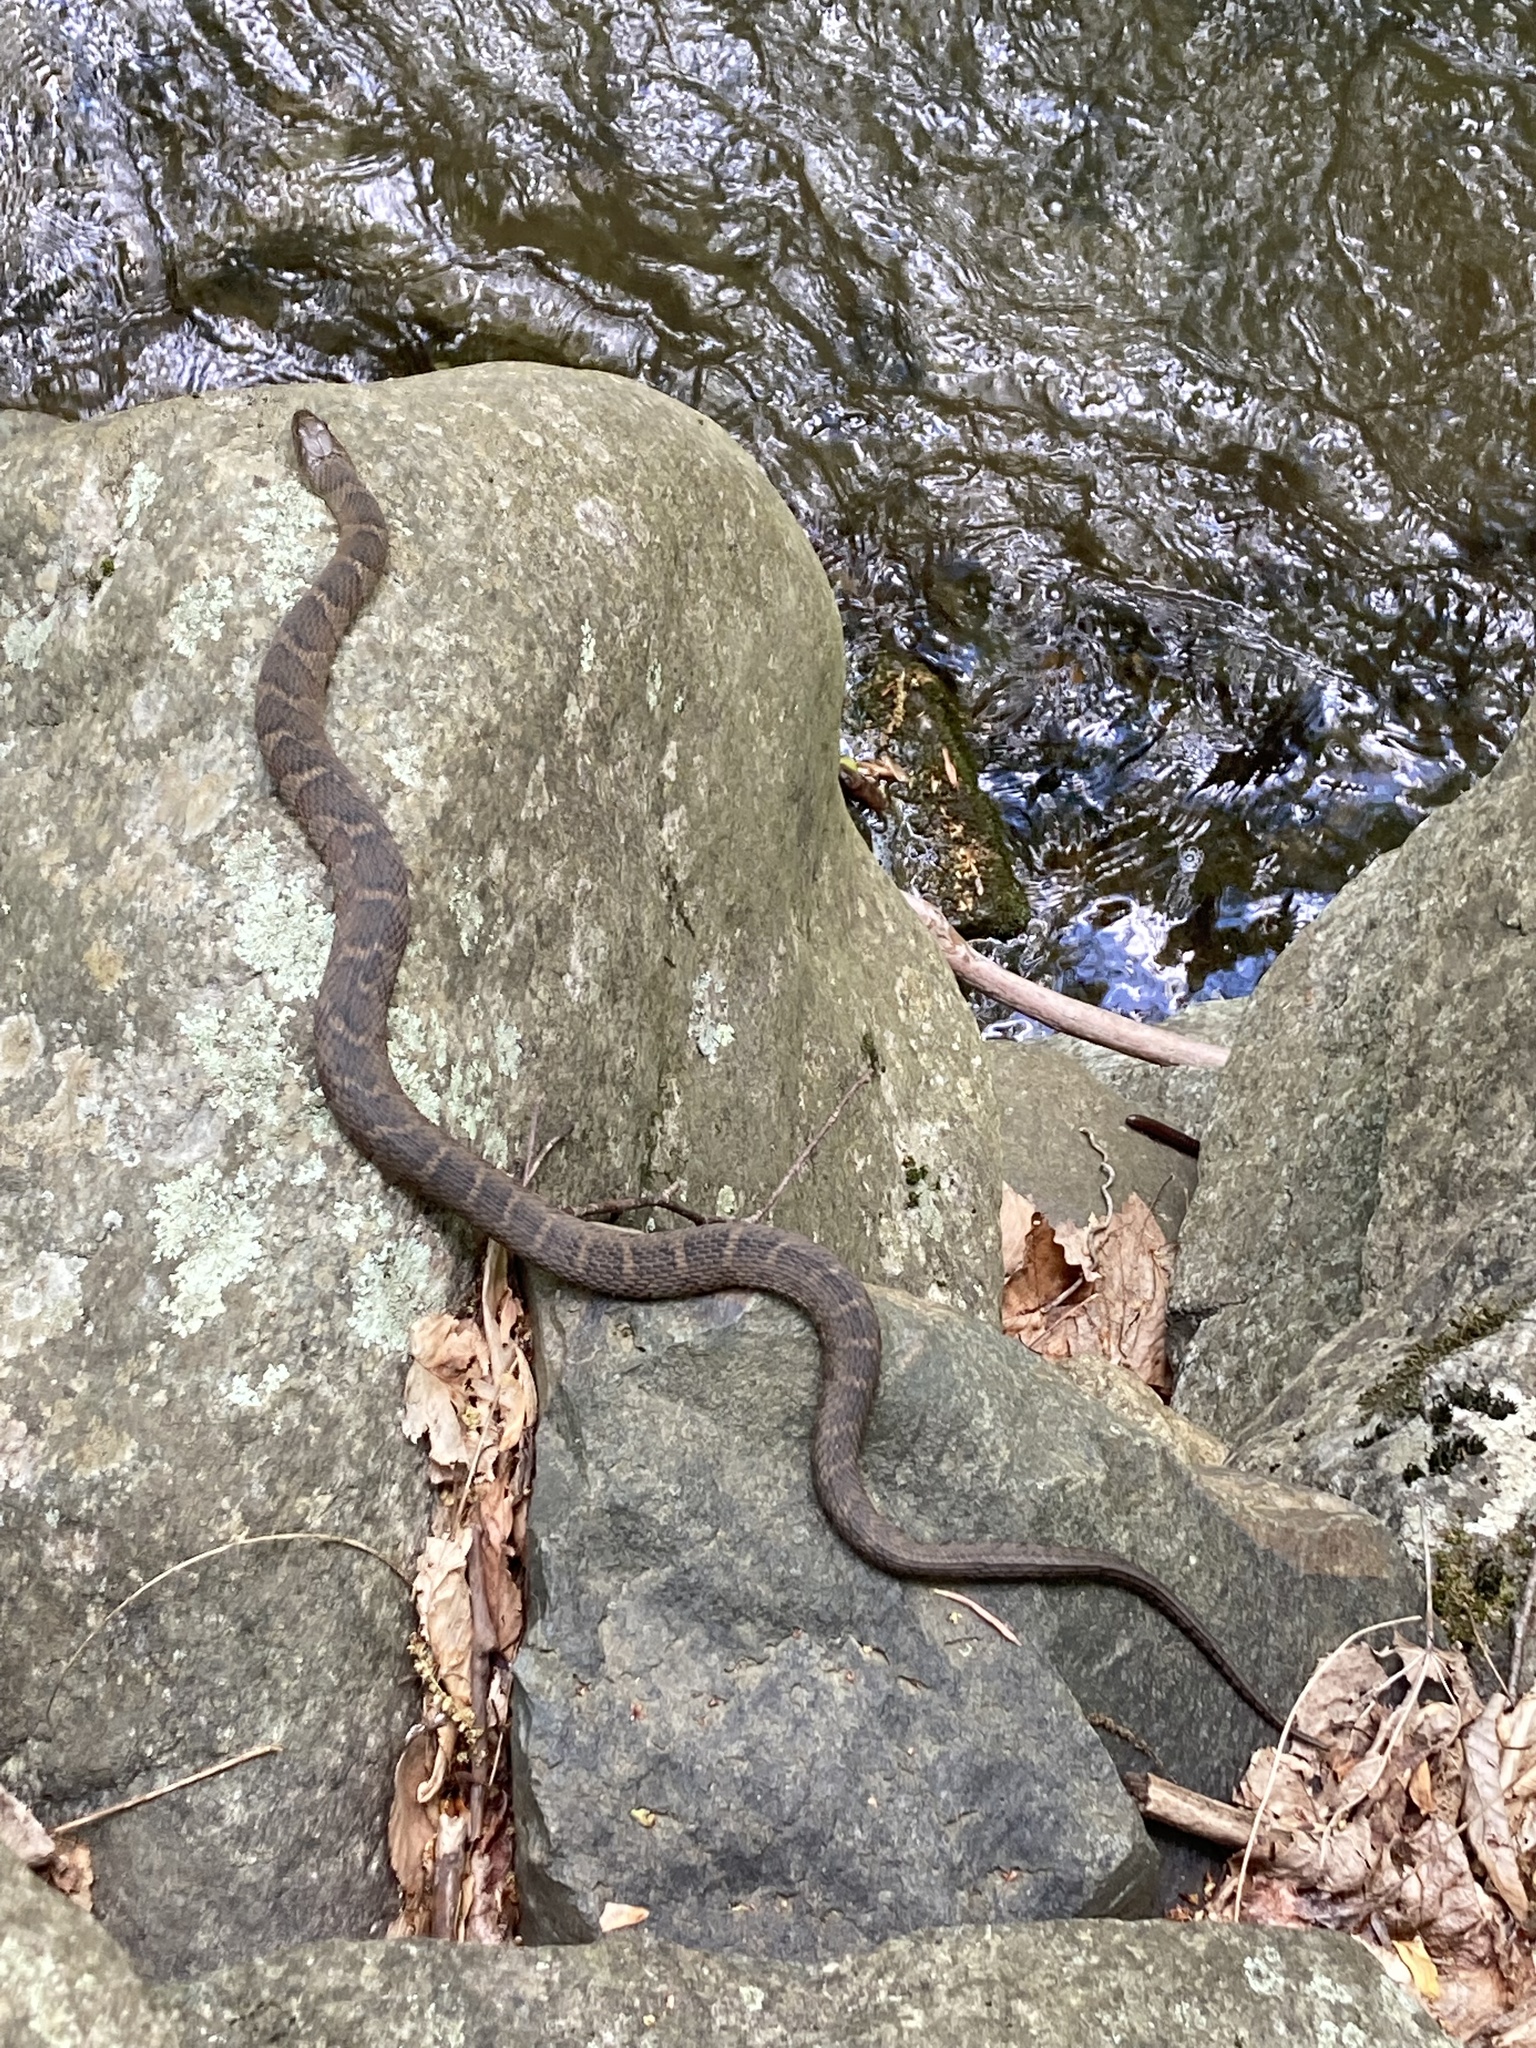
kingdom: Animalia
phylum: Chordata
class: Squamata
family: Colubridae
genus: Nerodia
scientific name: Nerodia sipedon
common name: Northern water snake
